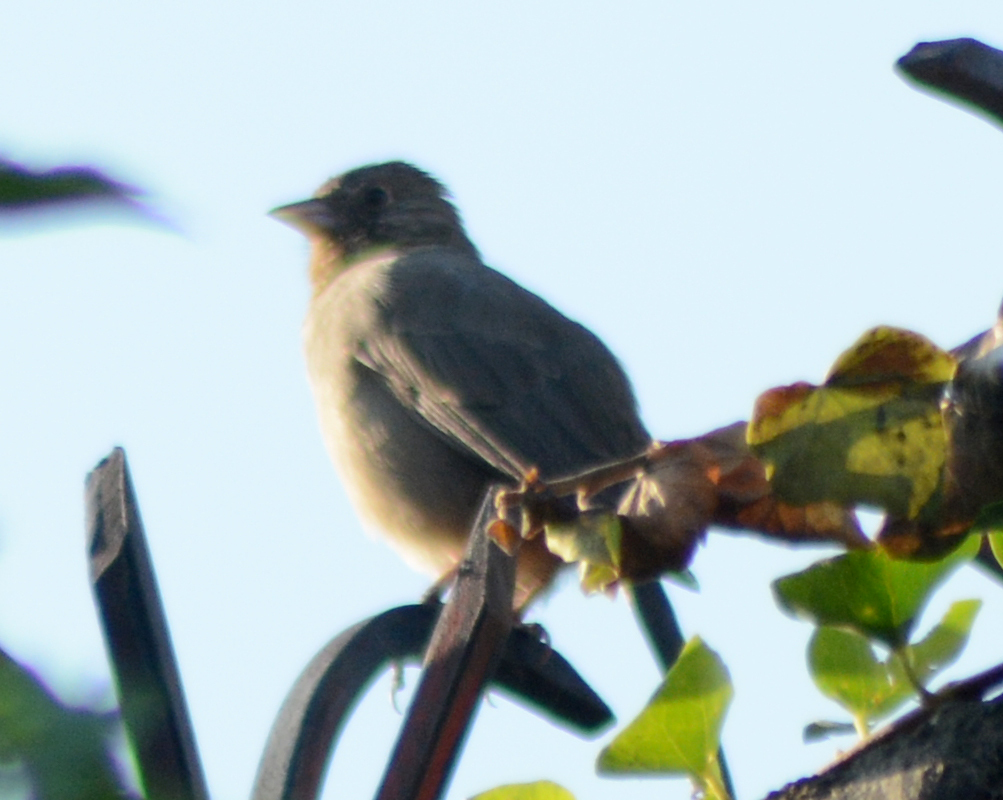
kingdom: Animalia
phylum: Chordata
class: Aves
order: Passeriformes
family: Passerellidae
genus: Melozone
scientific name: Melozone fusca
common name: Canyon towhee
